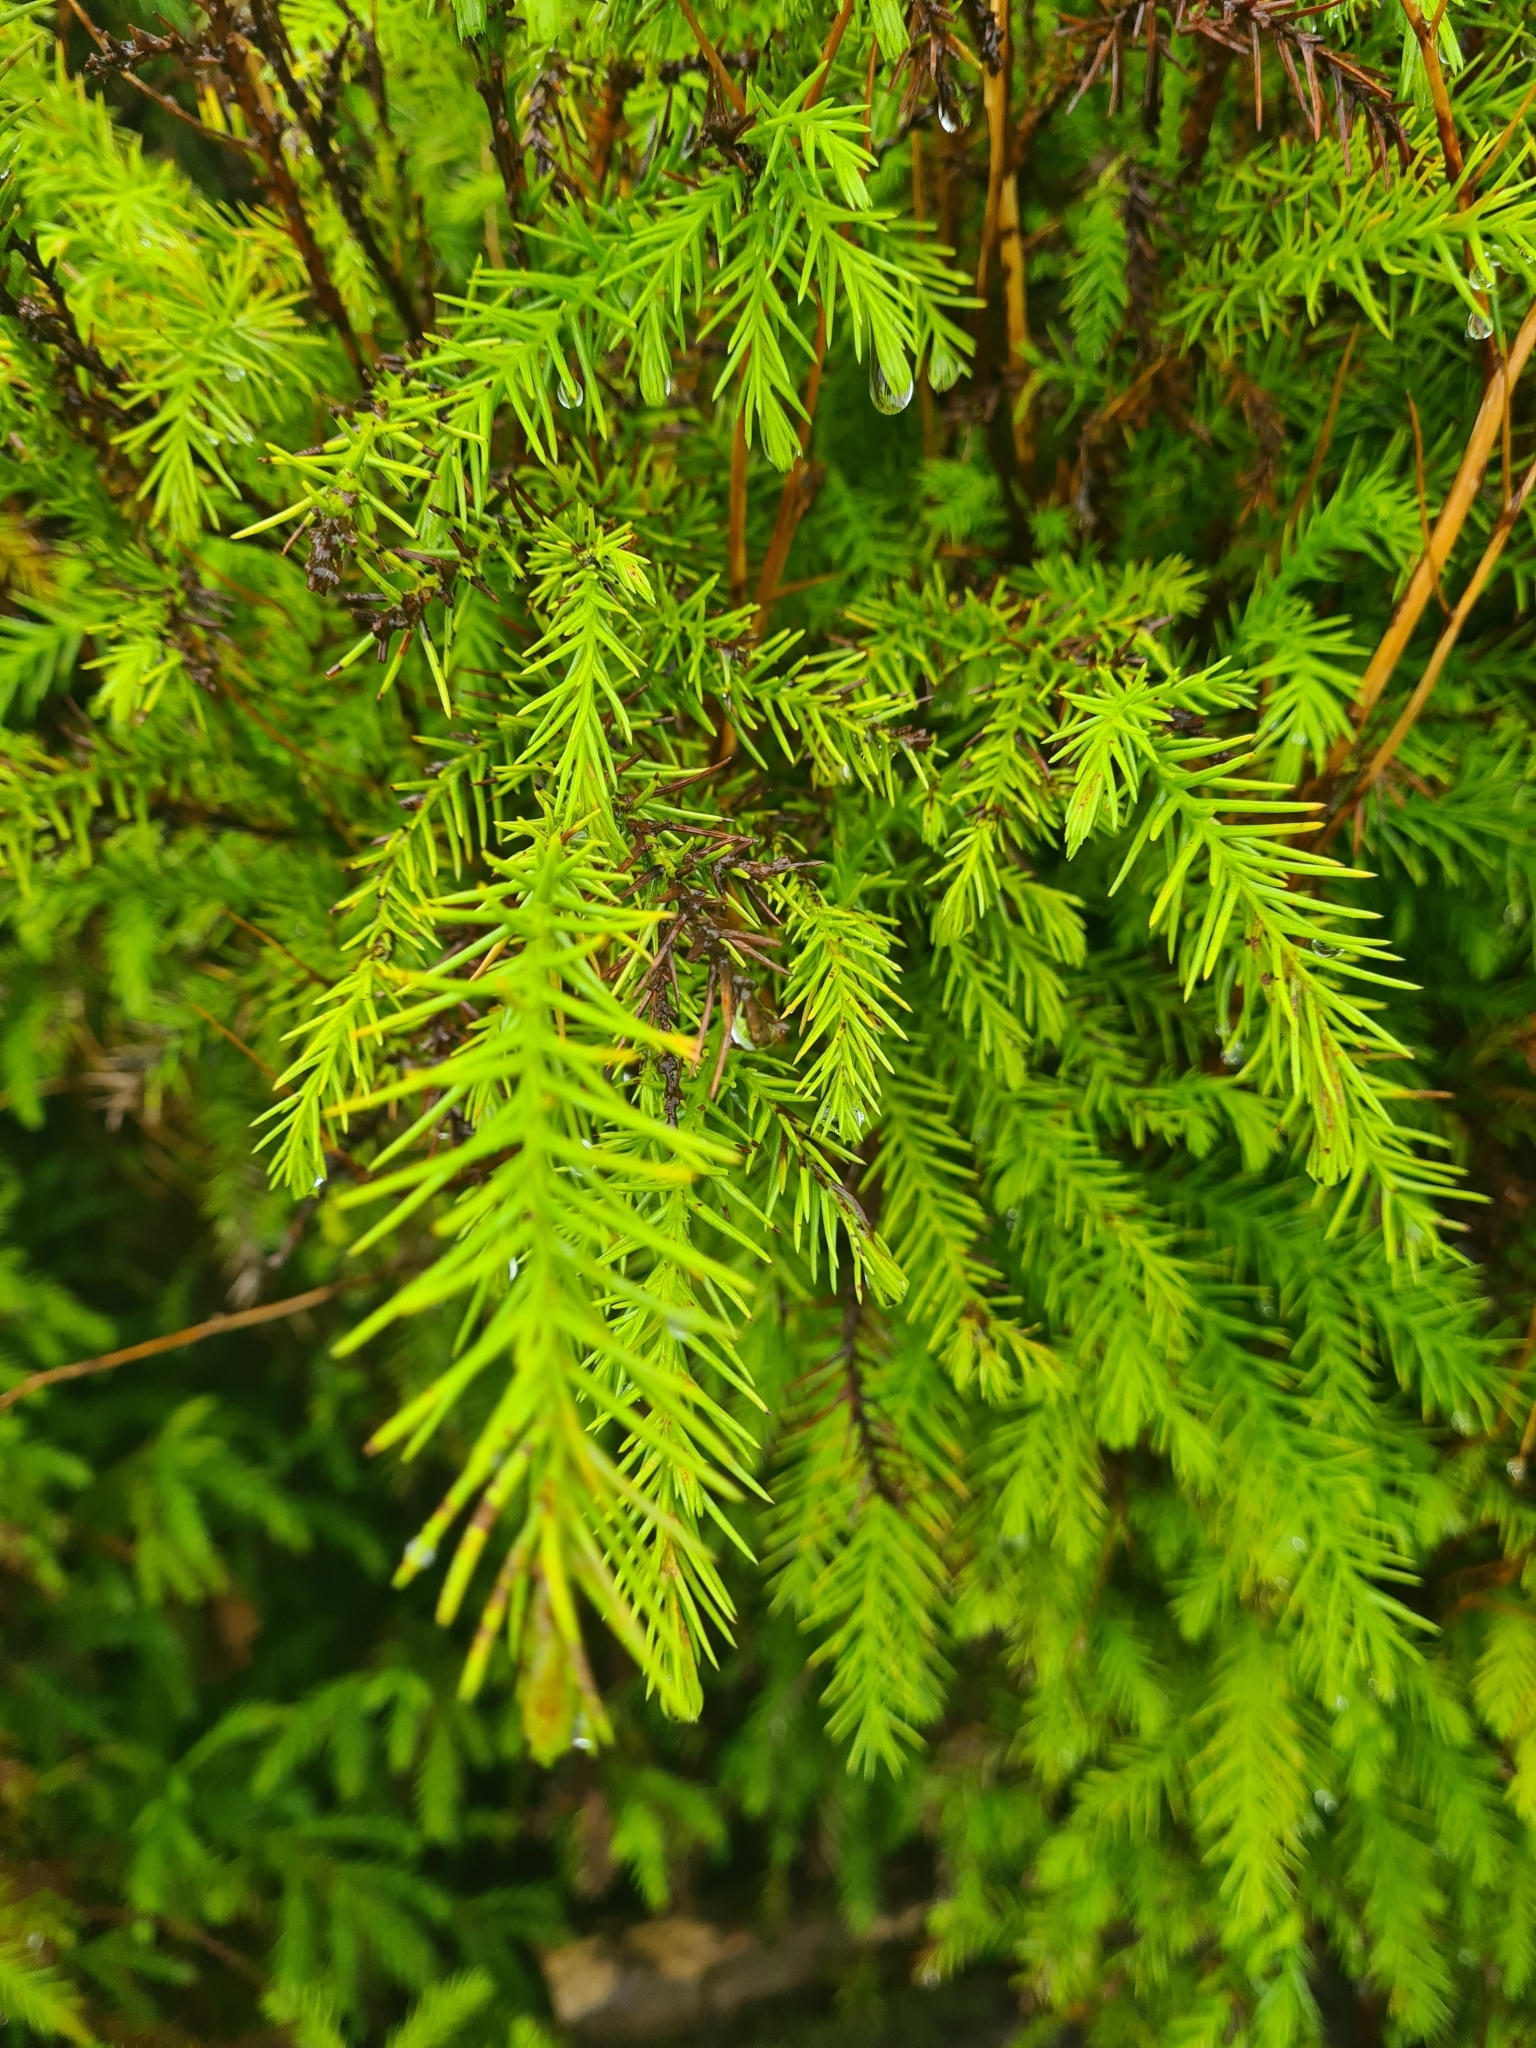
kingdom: Plantae
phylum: Tracheophyta
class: Pinopsida
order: Pinales
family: Cupressaceae
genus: Cryptomeria
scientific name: Cryptomeria japonica
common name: Japanese cedar
